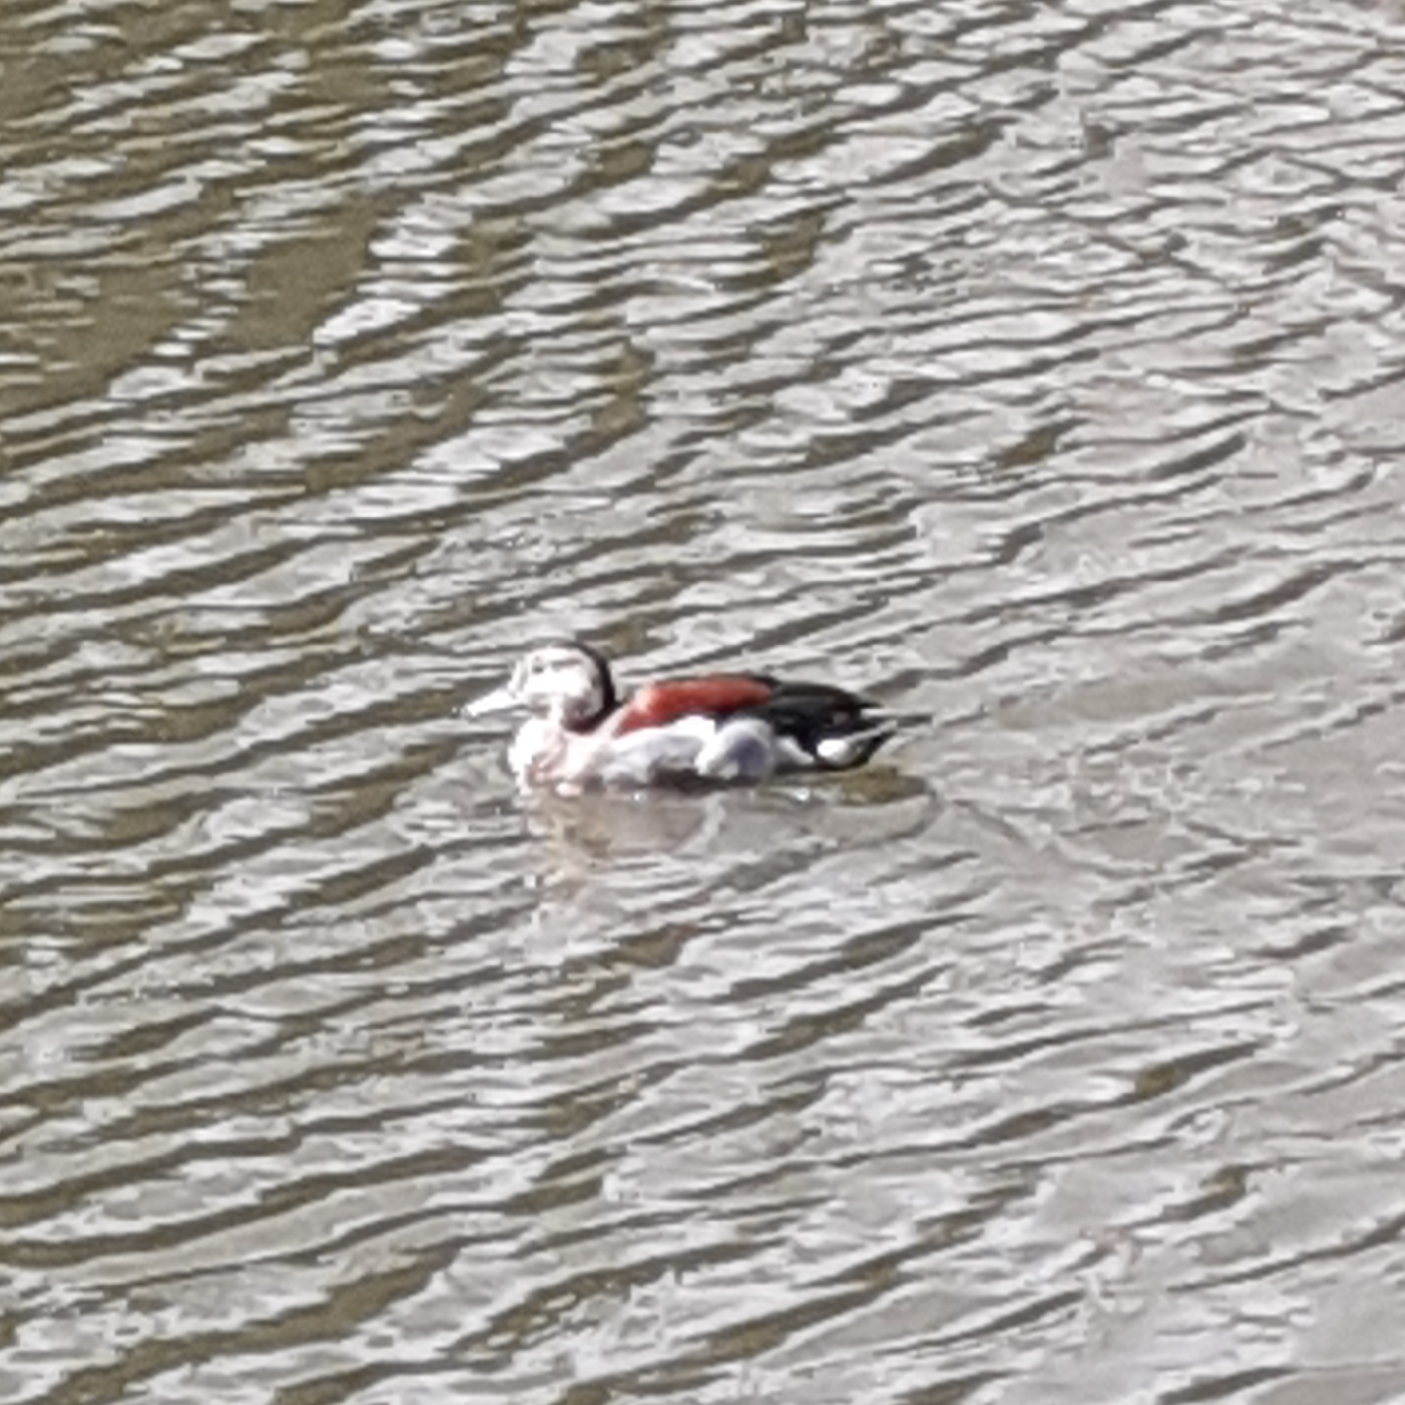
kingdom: Animalia
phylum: Chordata
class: Aves
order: Anseriformes
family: Anatidae
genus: Callonetta
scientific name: Callonetta leucophrys
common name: Ringed teal
